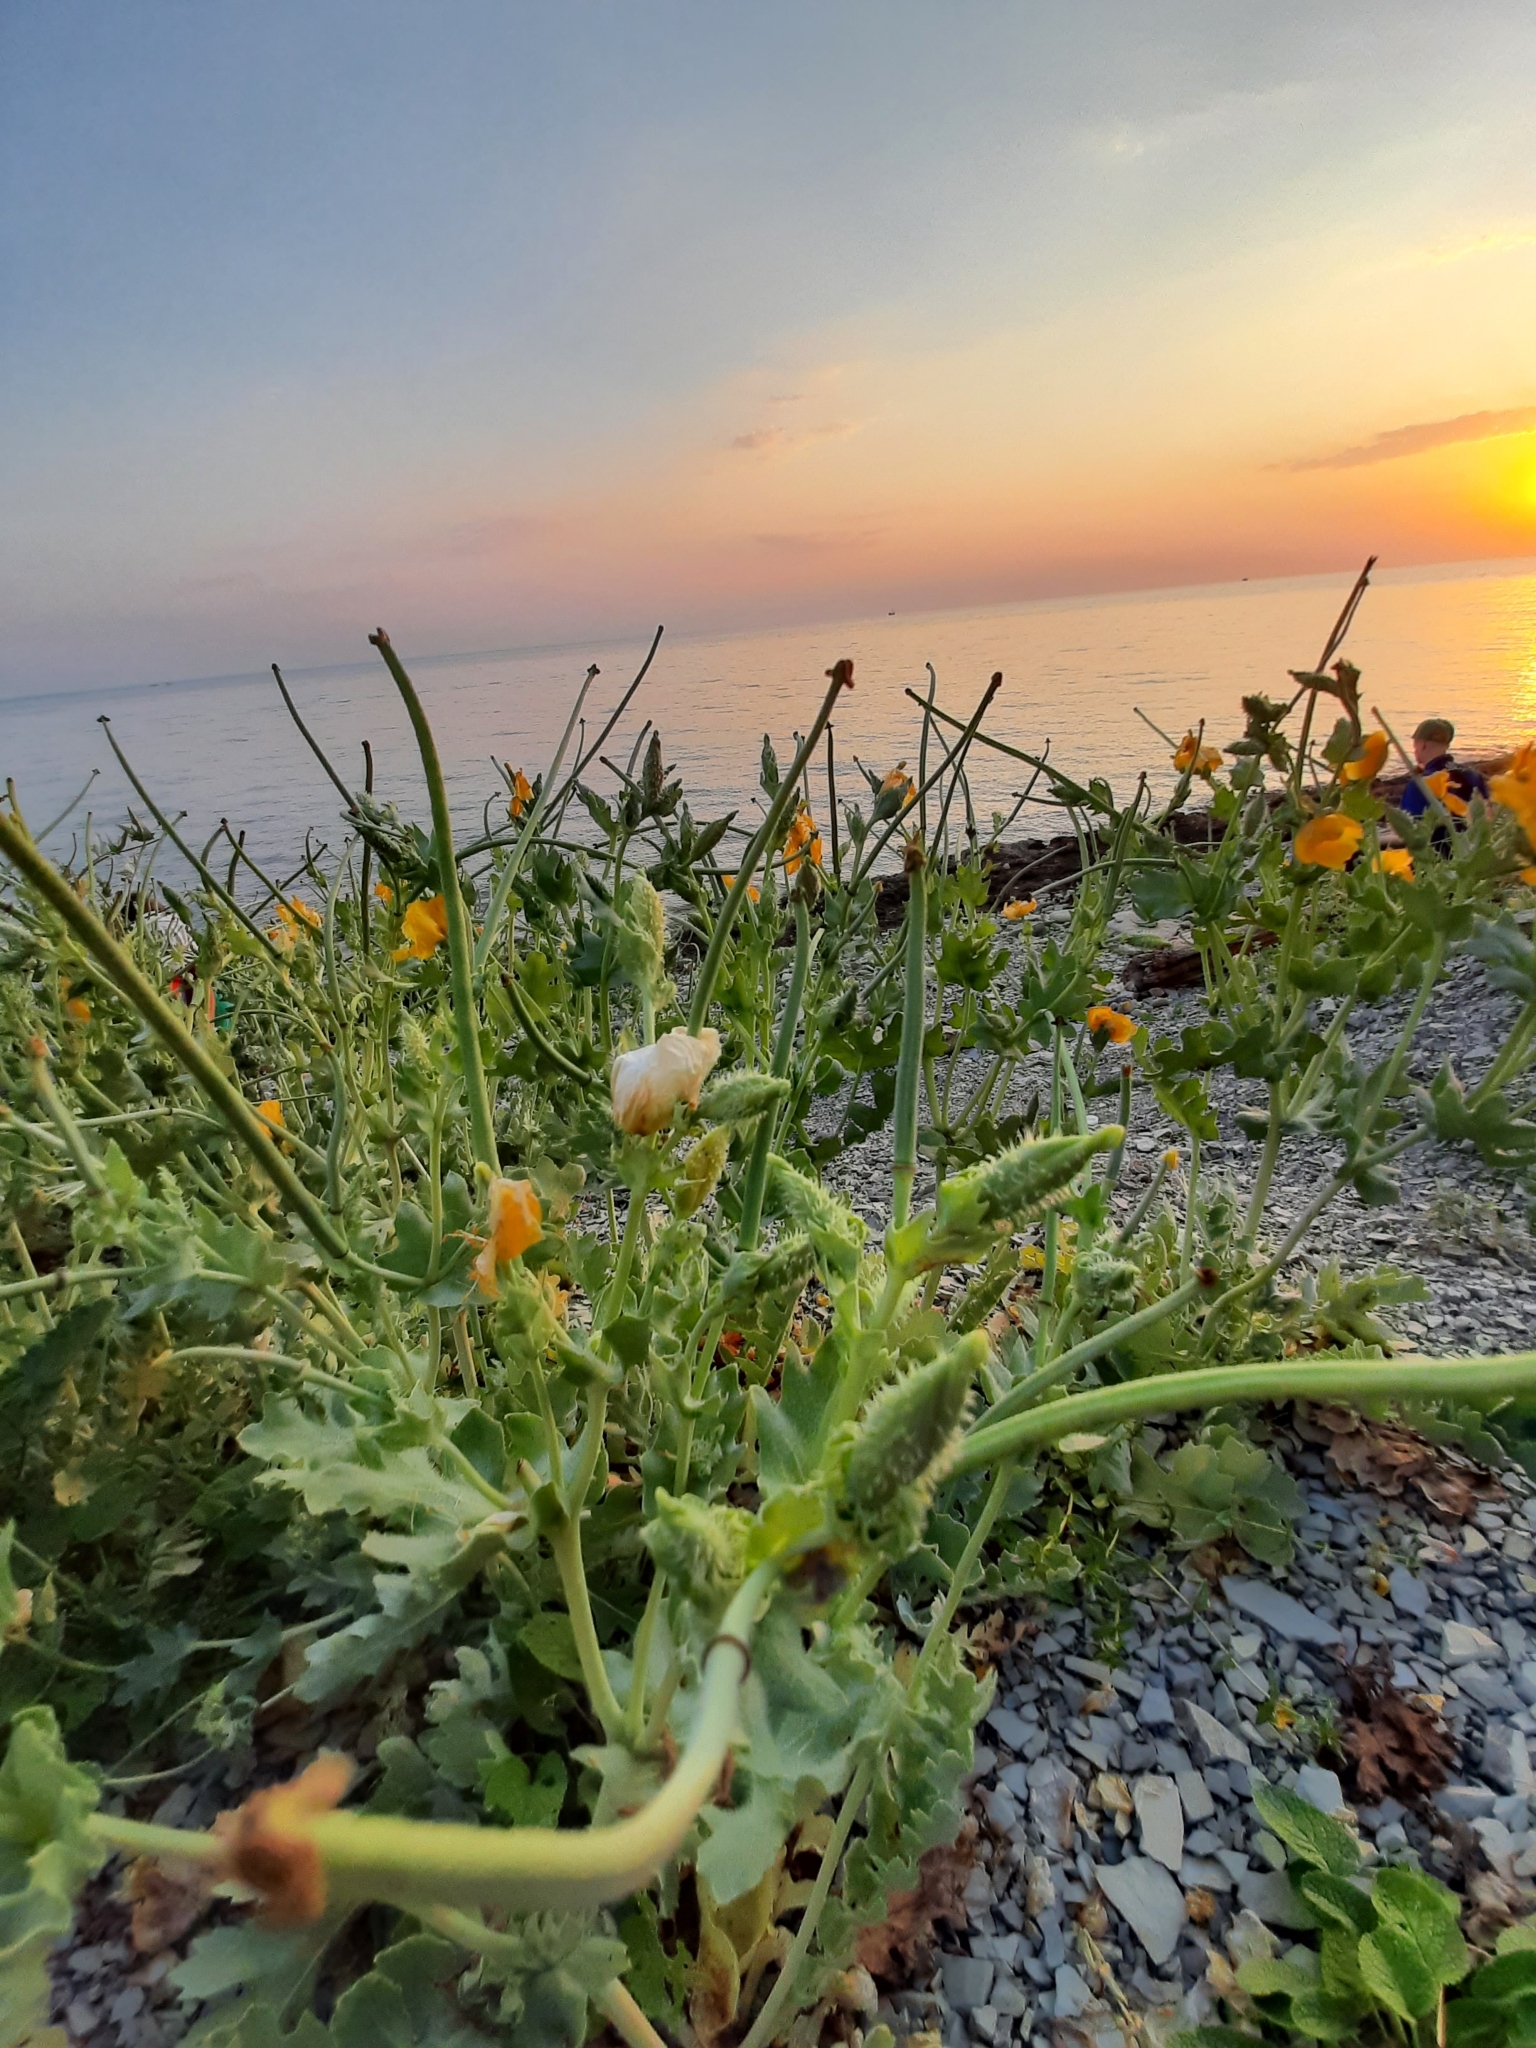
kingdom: Plantae
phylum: Tracheophyta
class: Magnoliopsida
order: Ranunculales
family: Papaveraceae
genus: Glaucium
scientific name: Glaucium flavum
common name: Yellow horned-poppy
